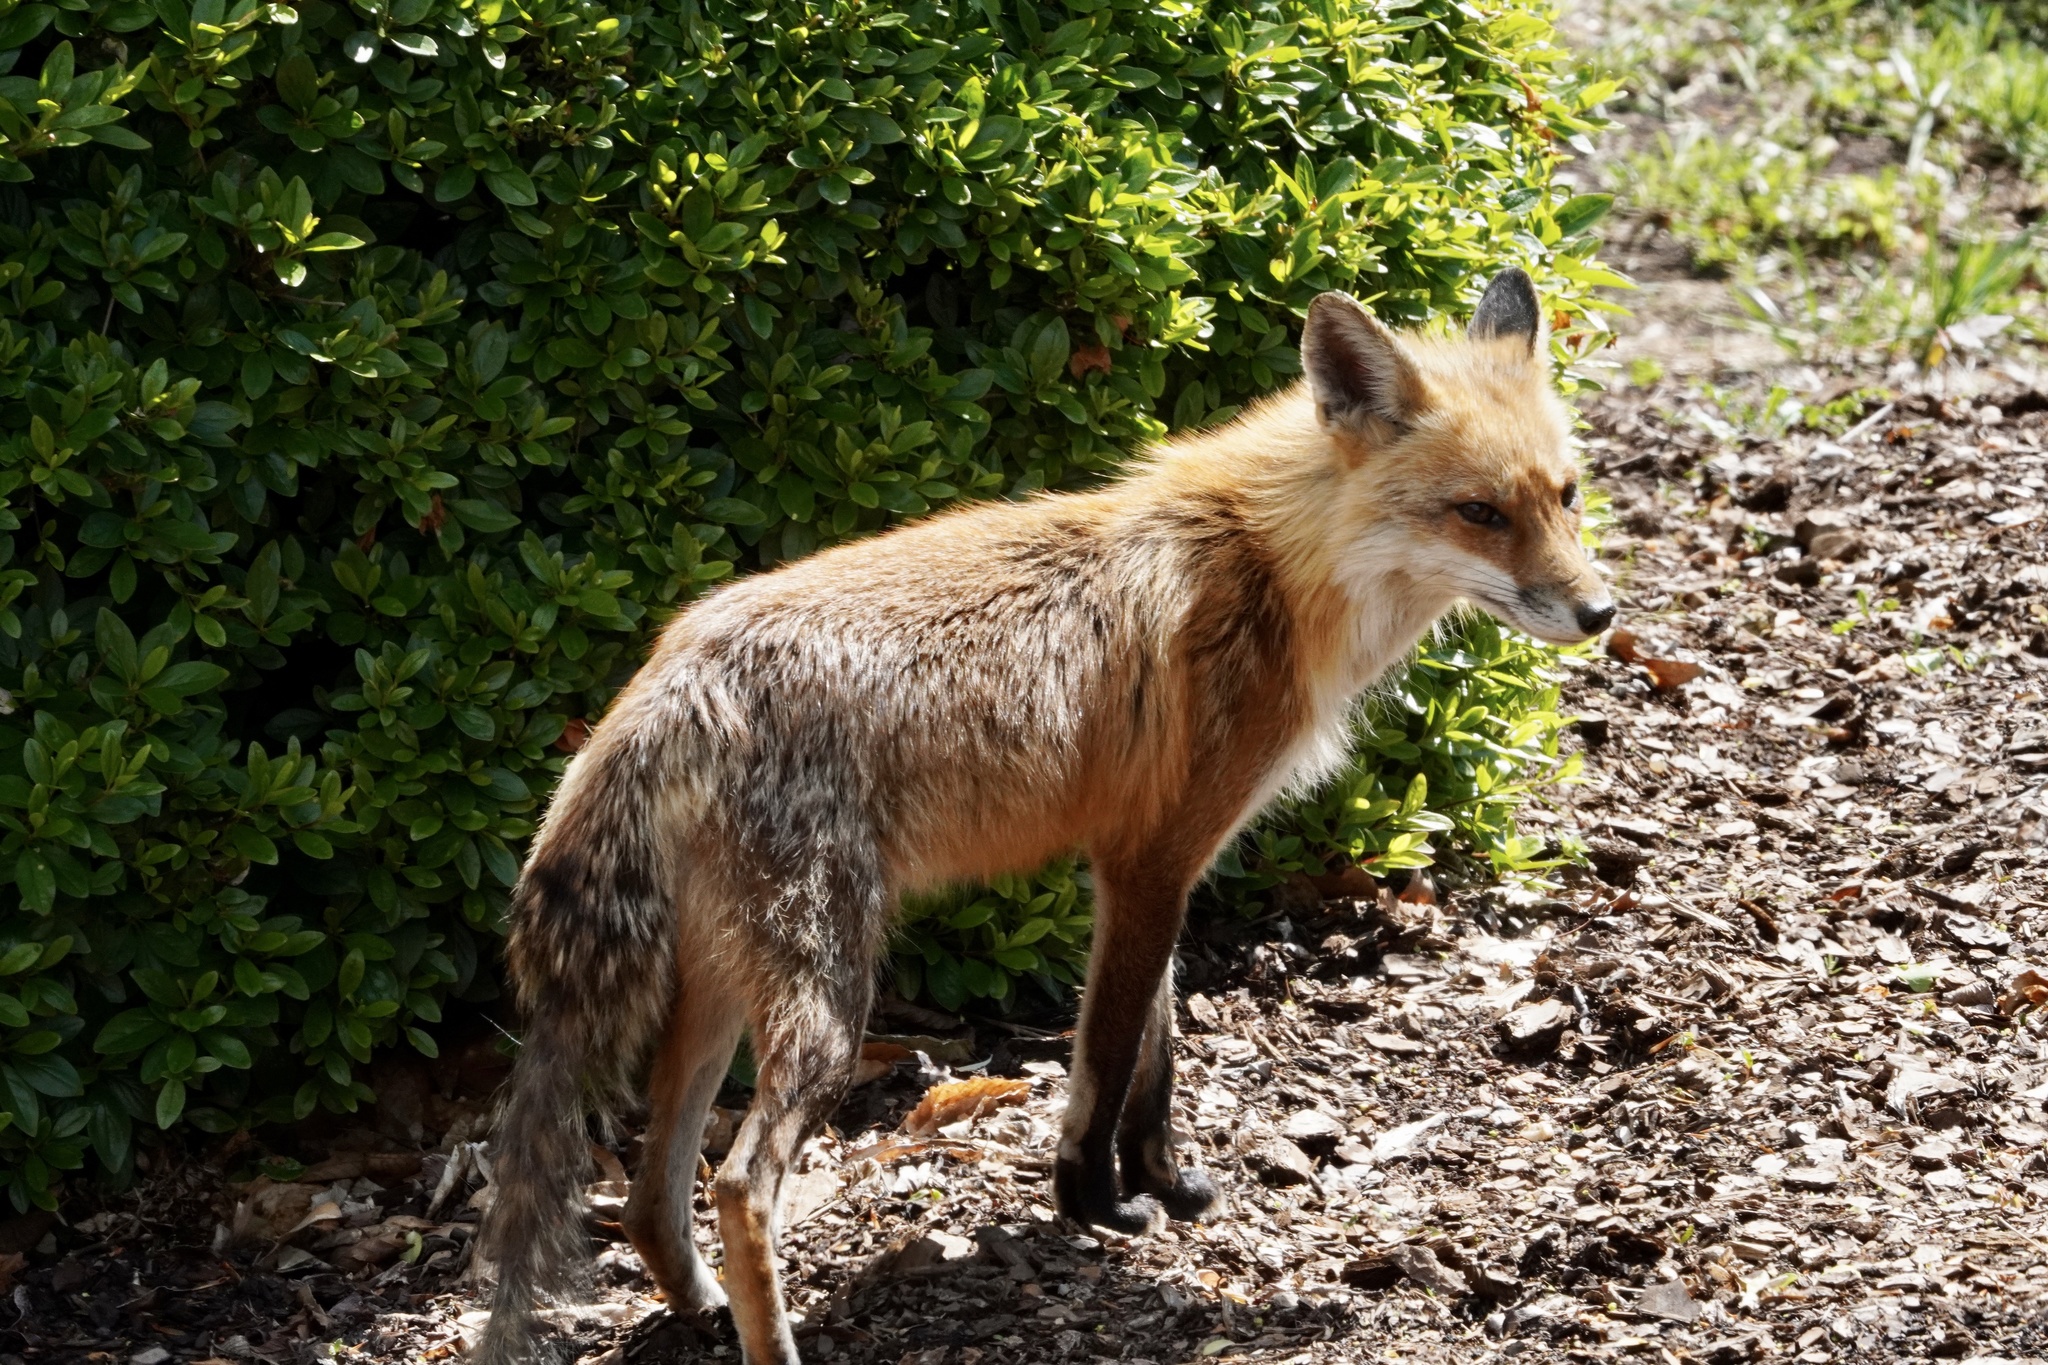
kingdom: Animalia
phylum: Chordata
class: Mammalia
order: Carnivora
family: Canidae
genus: Vulpes
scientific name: Vulpes vulpes
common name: Red fox
